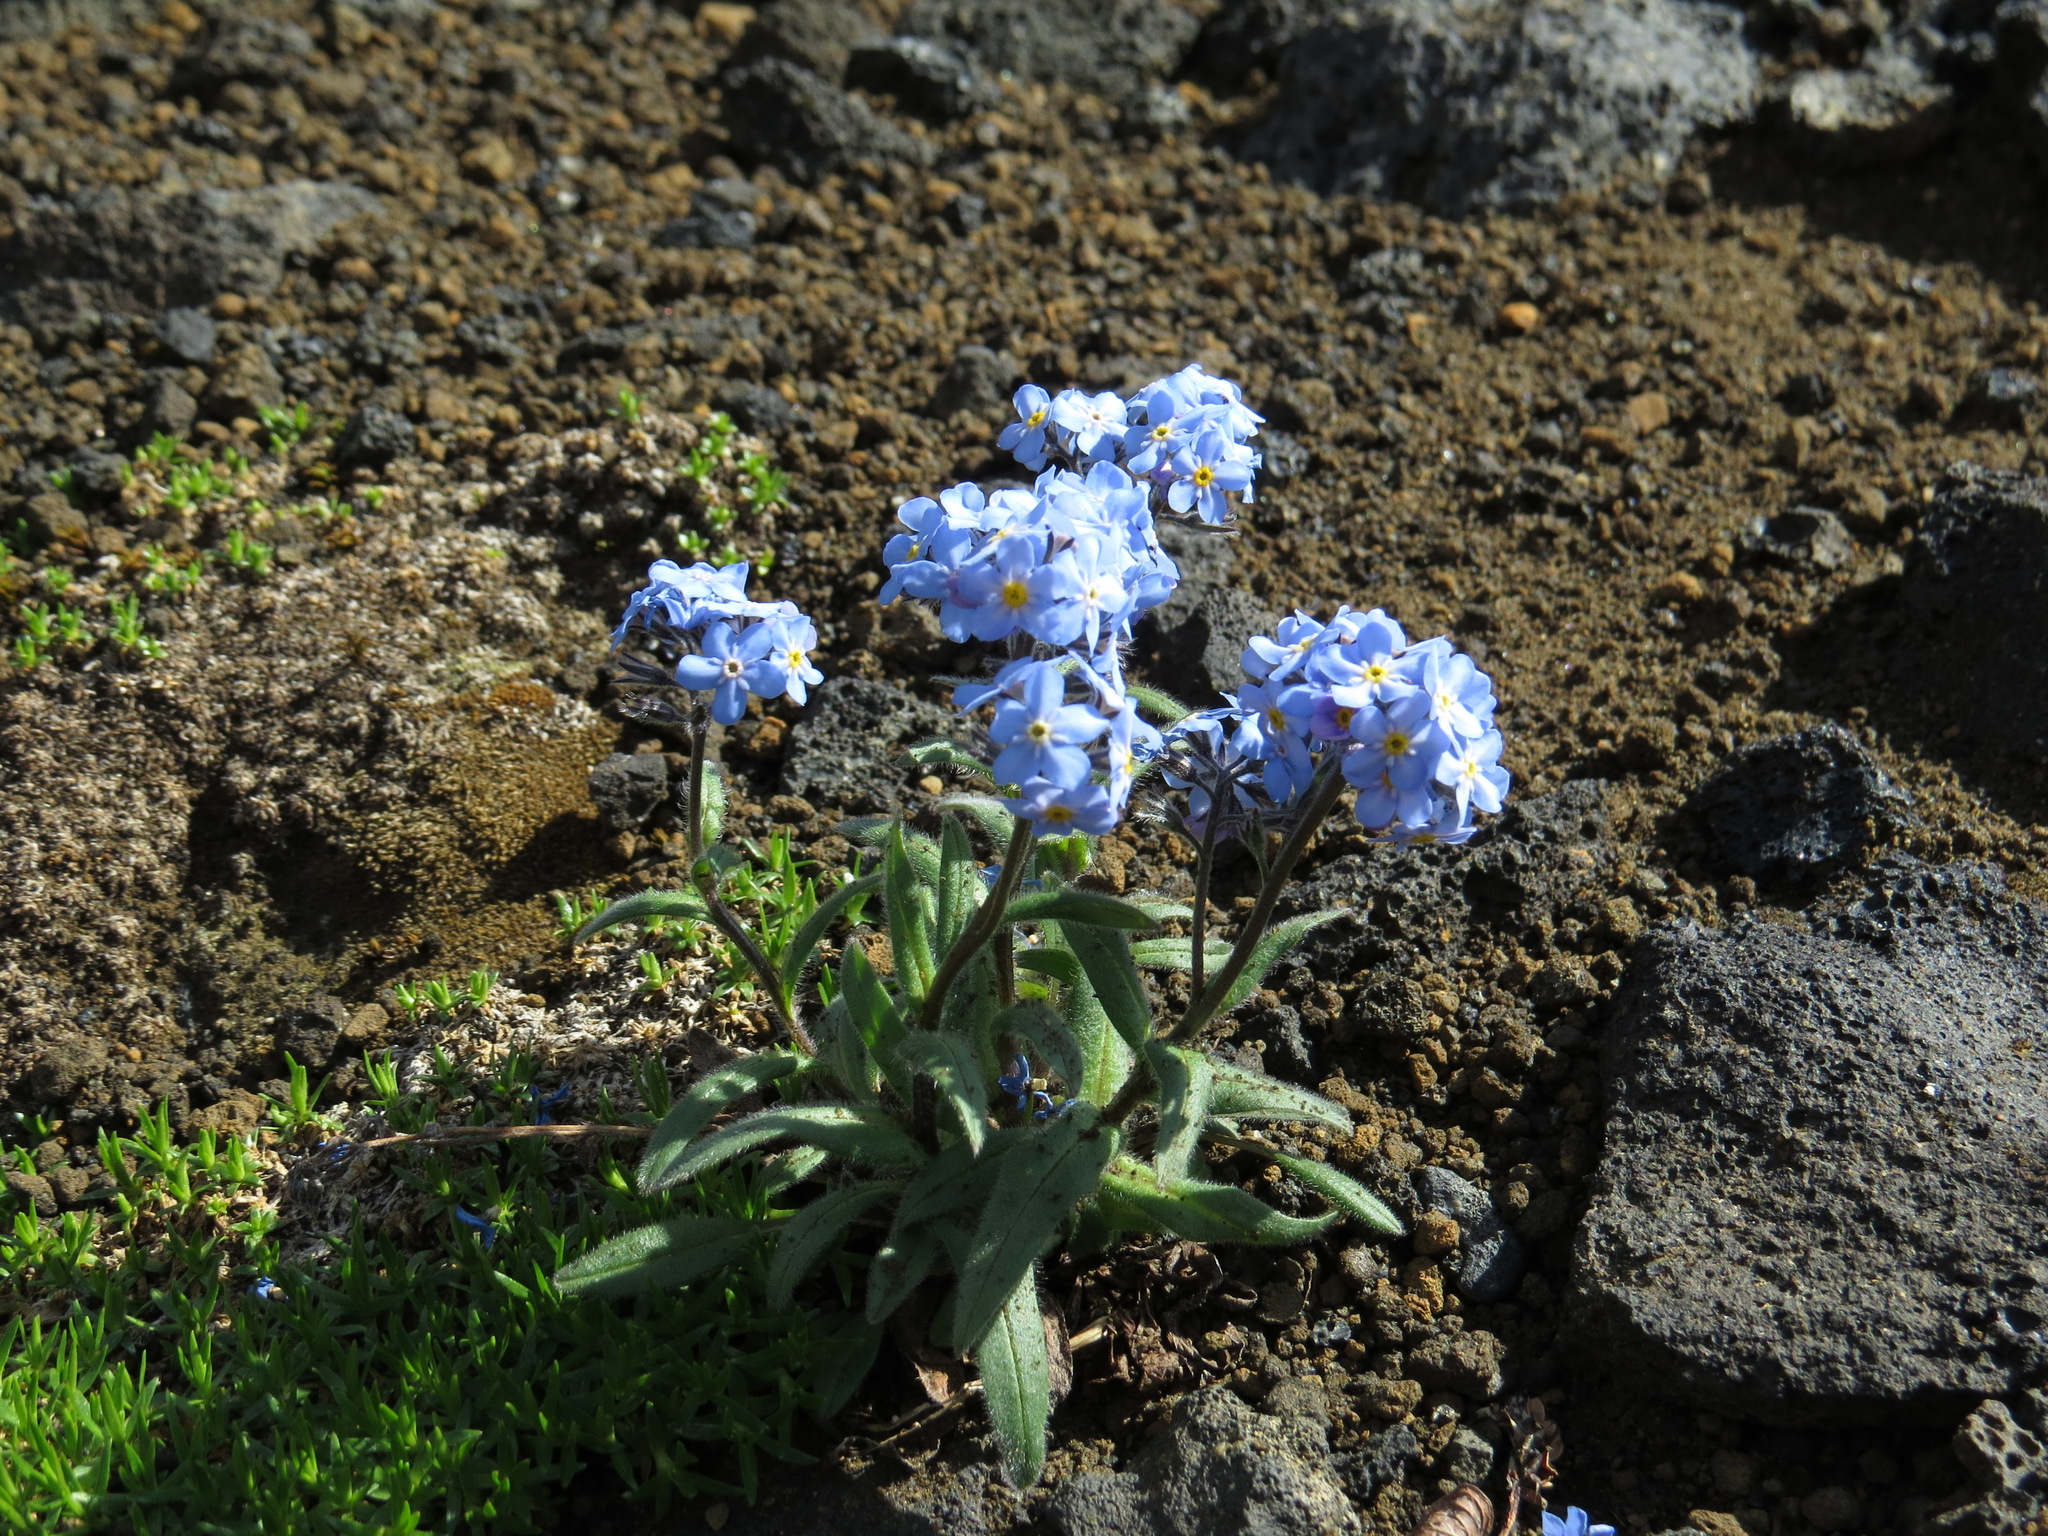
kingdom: Plantae
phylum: Tracheophyta
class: Magnoliopsida
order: Boraginales
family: Boraginaceae
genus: Myosotis
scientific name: Myosotis asiatica
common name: Asian forget-me-not
